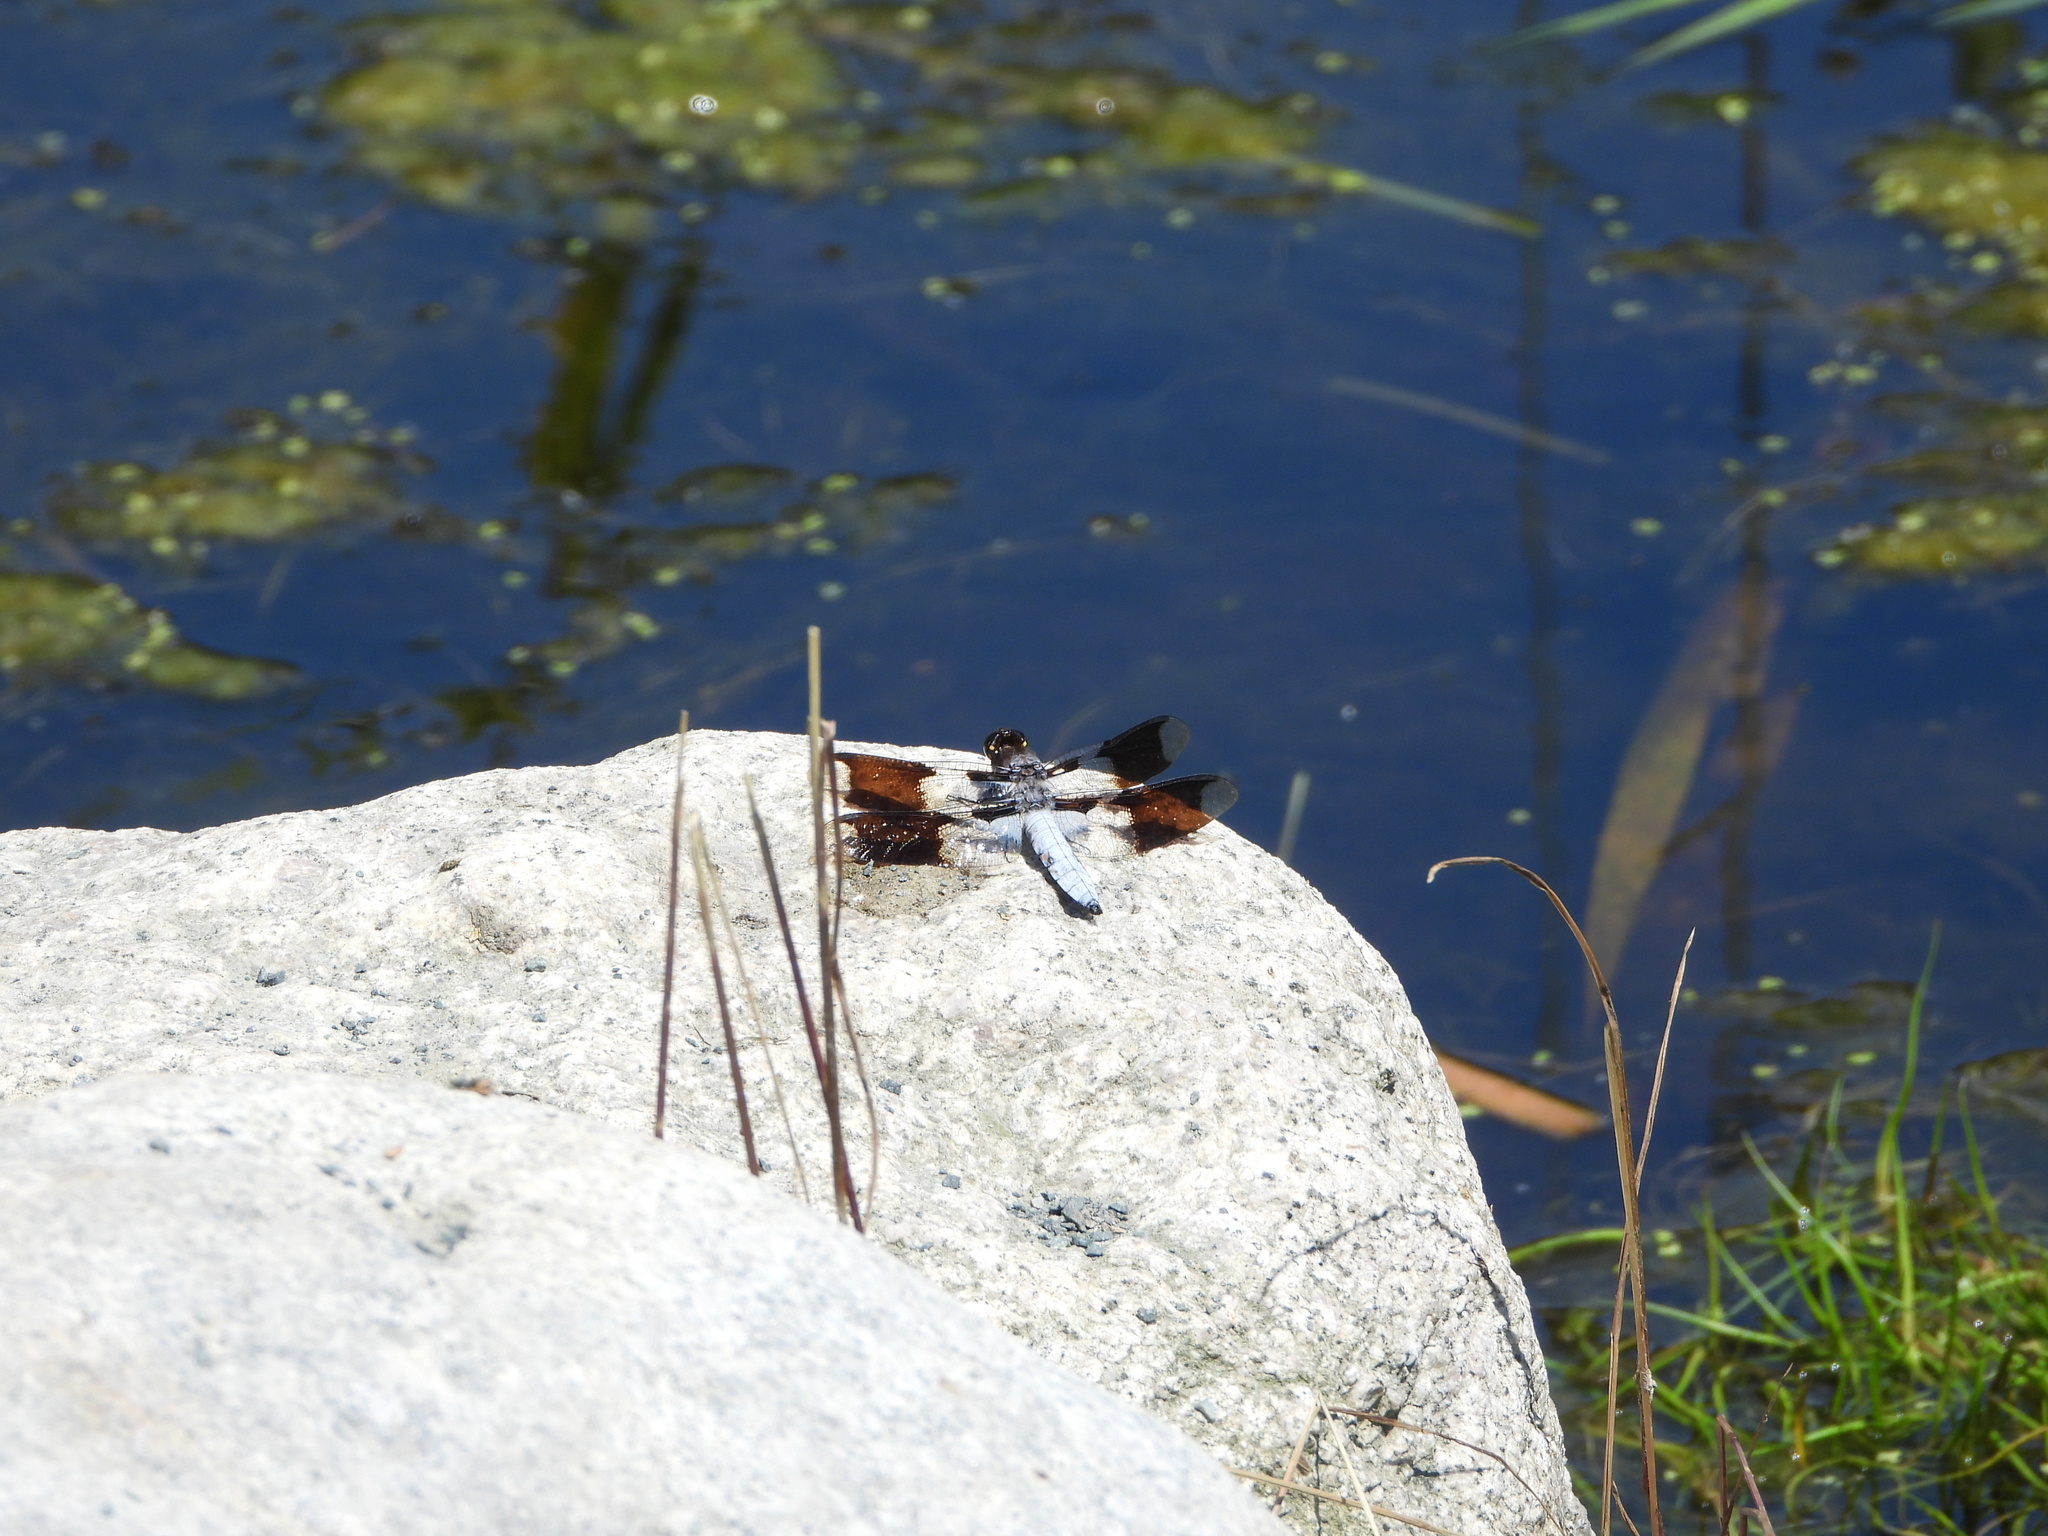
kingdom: Animalia
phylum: Arthropoda
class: Insecta
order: Odonata
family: Libellulidae
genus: Plathemis
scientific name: Plathemis lydia
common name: Common whitetail
